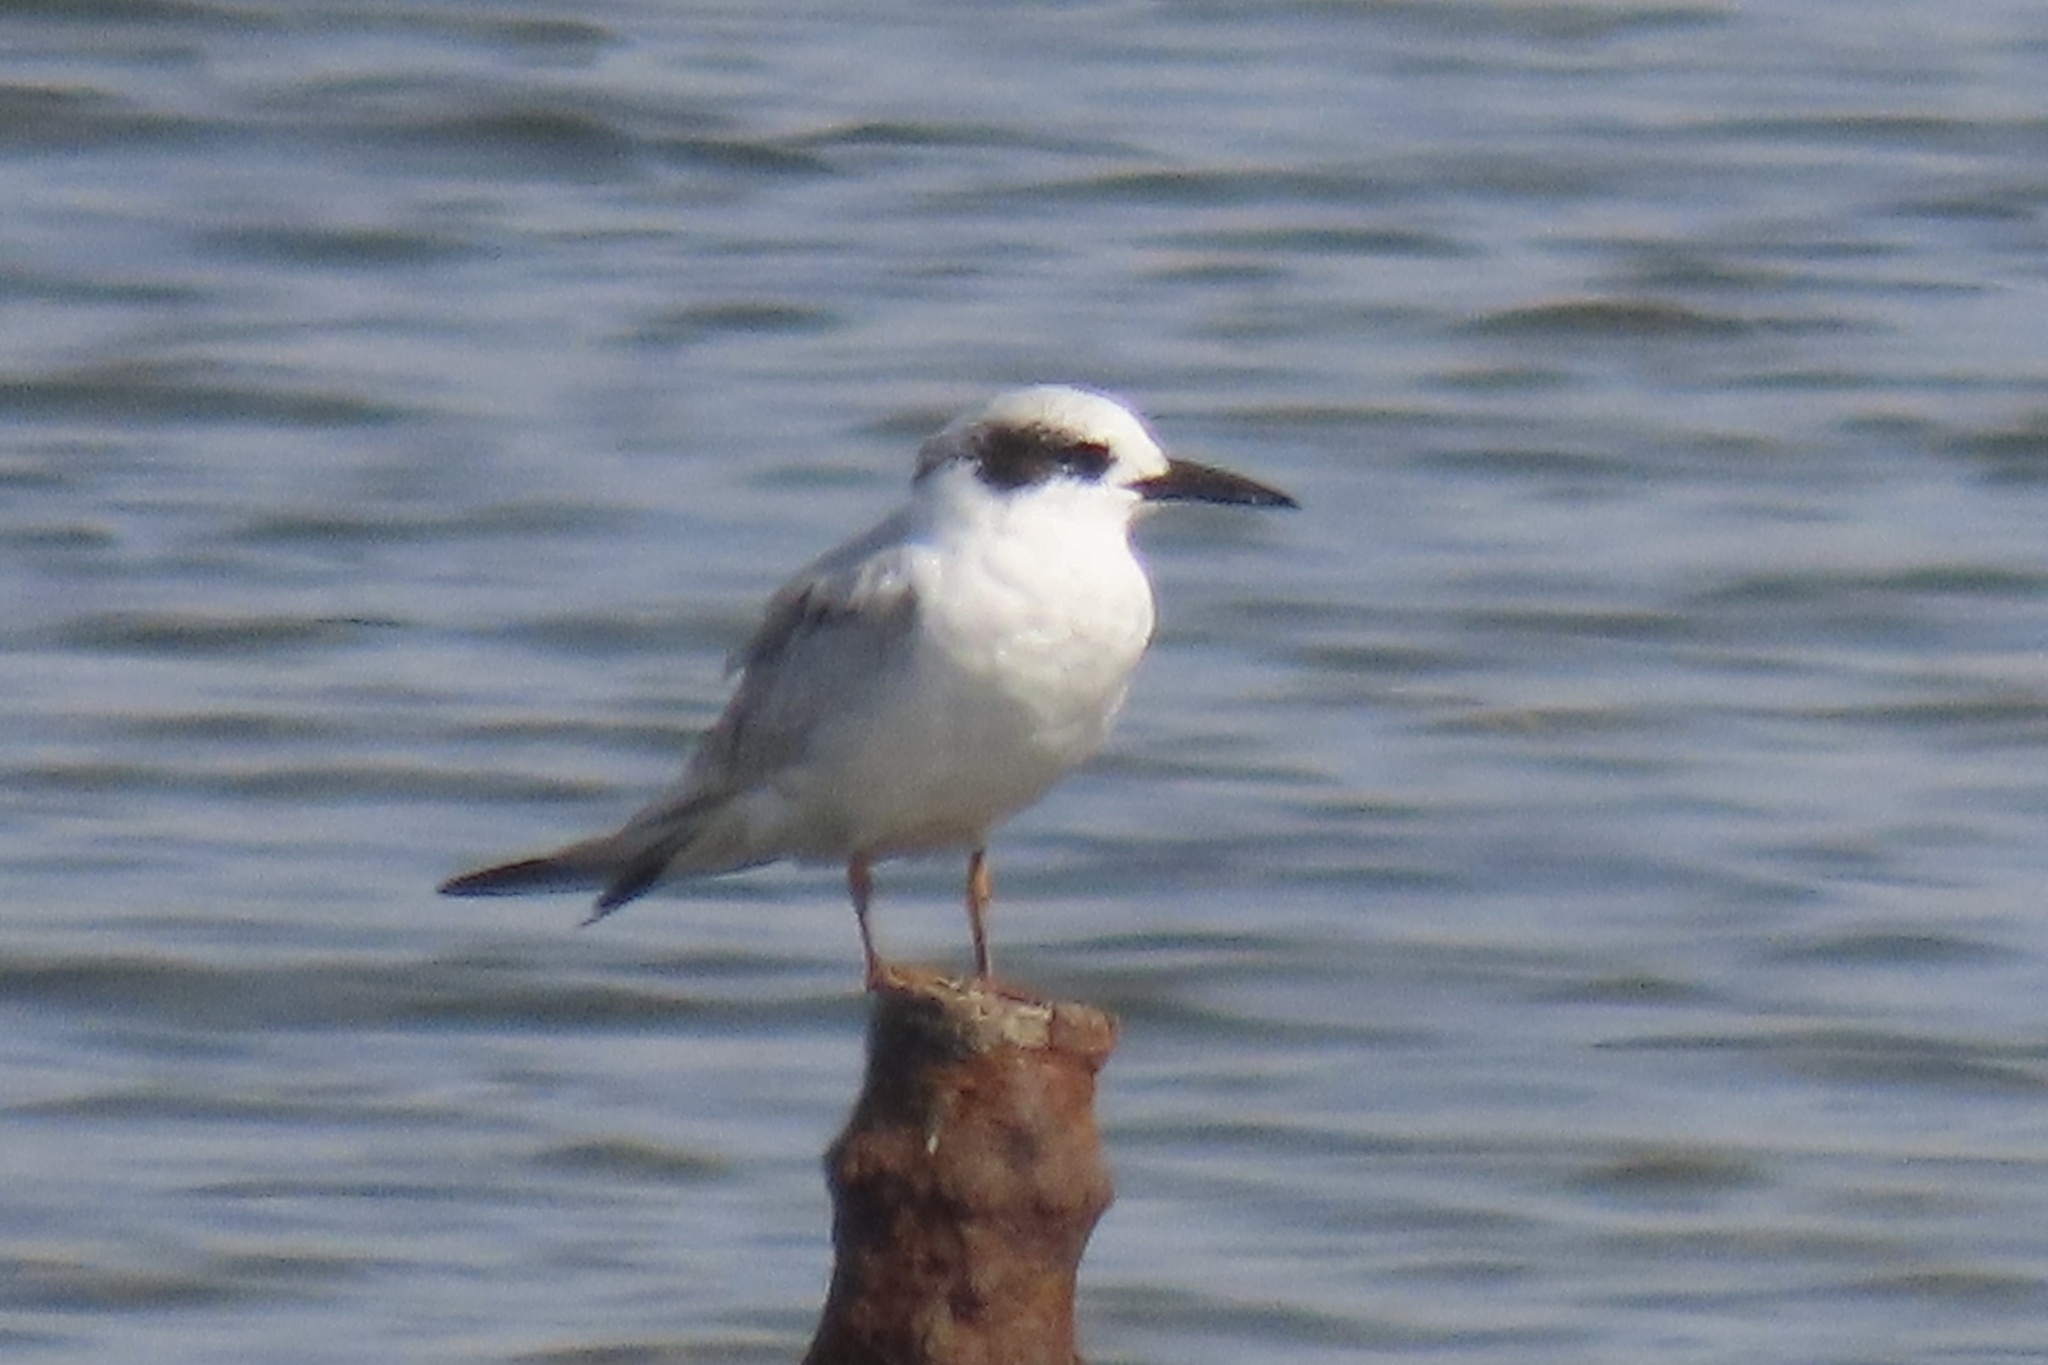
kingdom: Animalia
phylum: Chordata
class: Aves
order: Charadriiformes
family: Laridae
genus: Sterna
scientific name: Sterna forsteri
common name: Forster's tern
